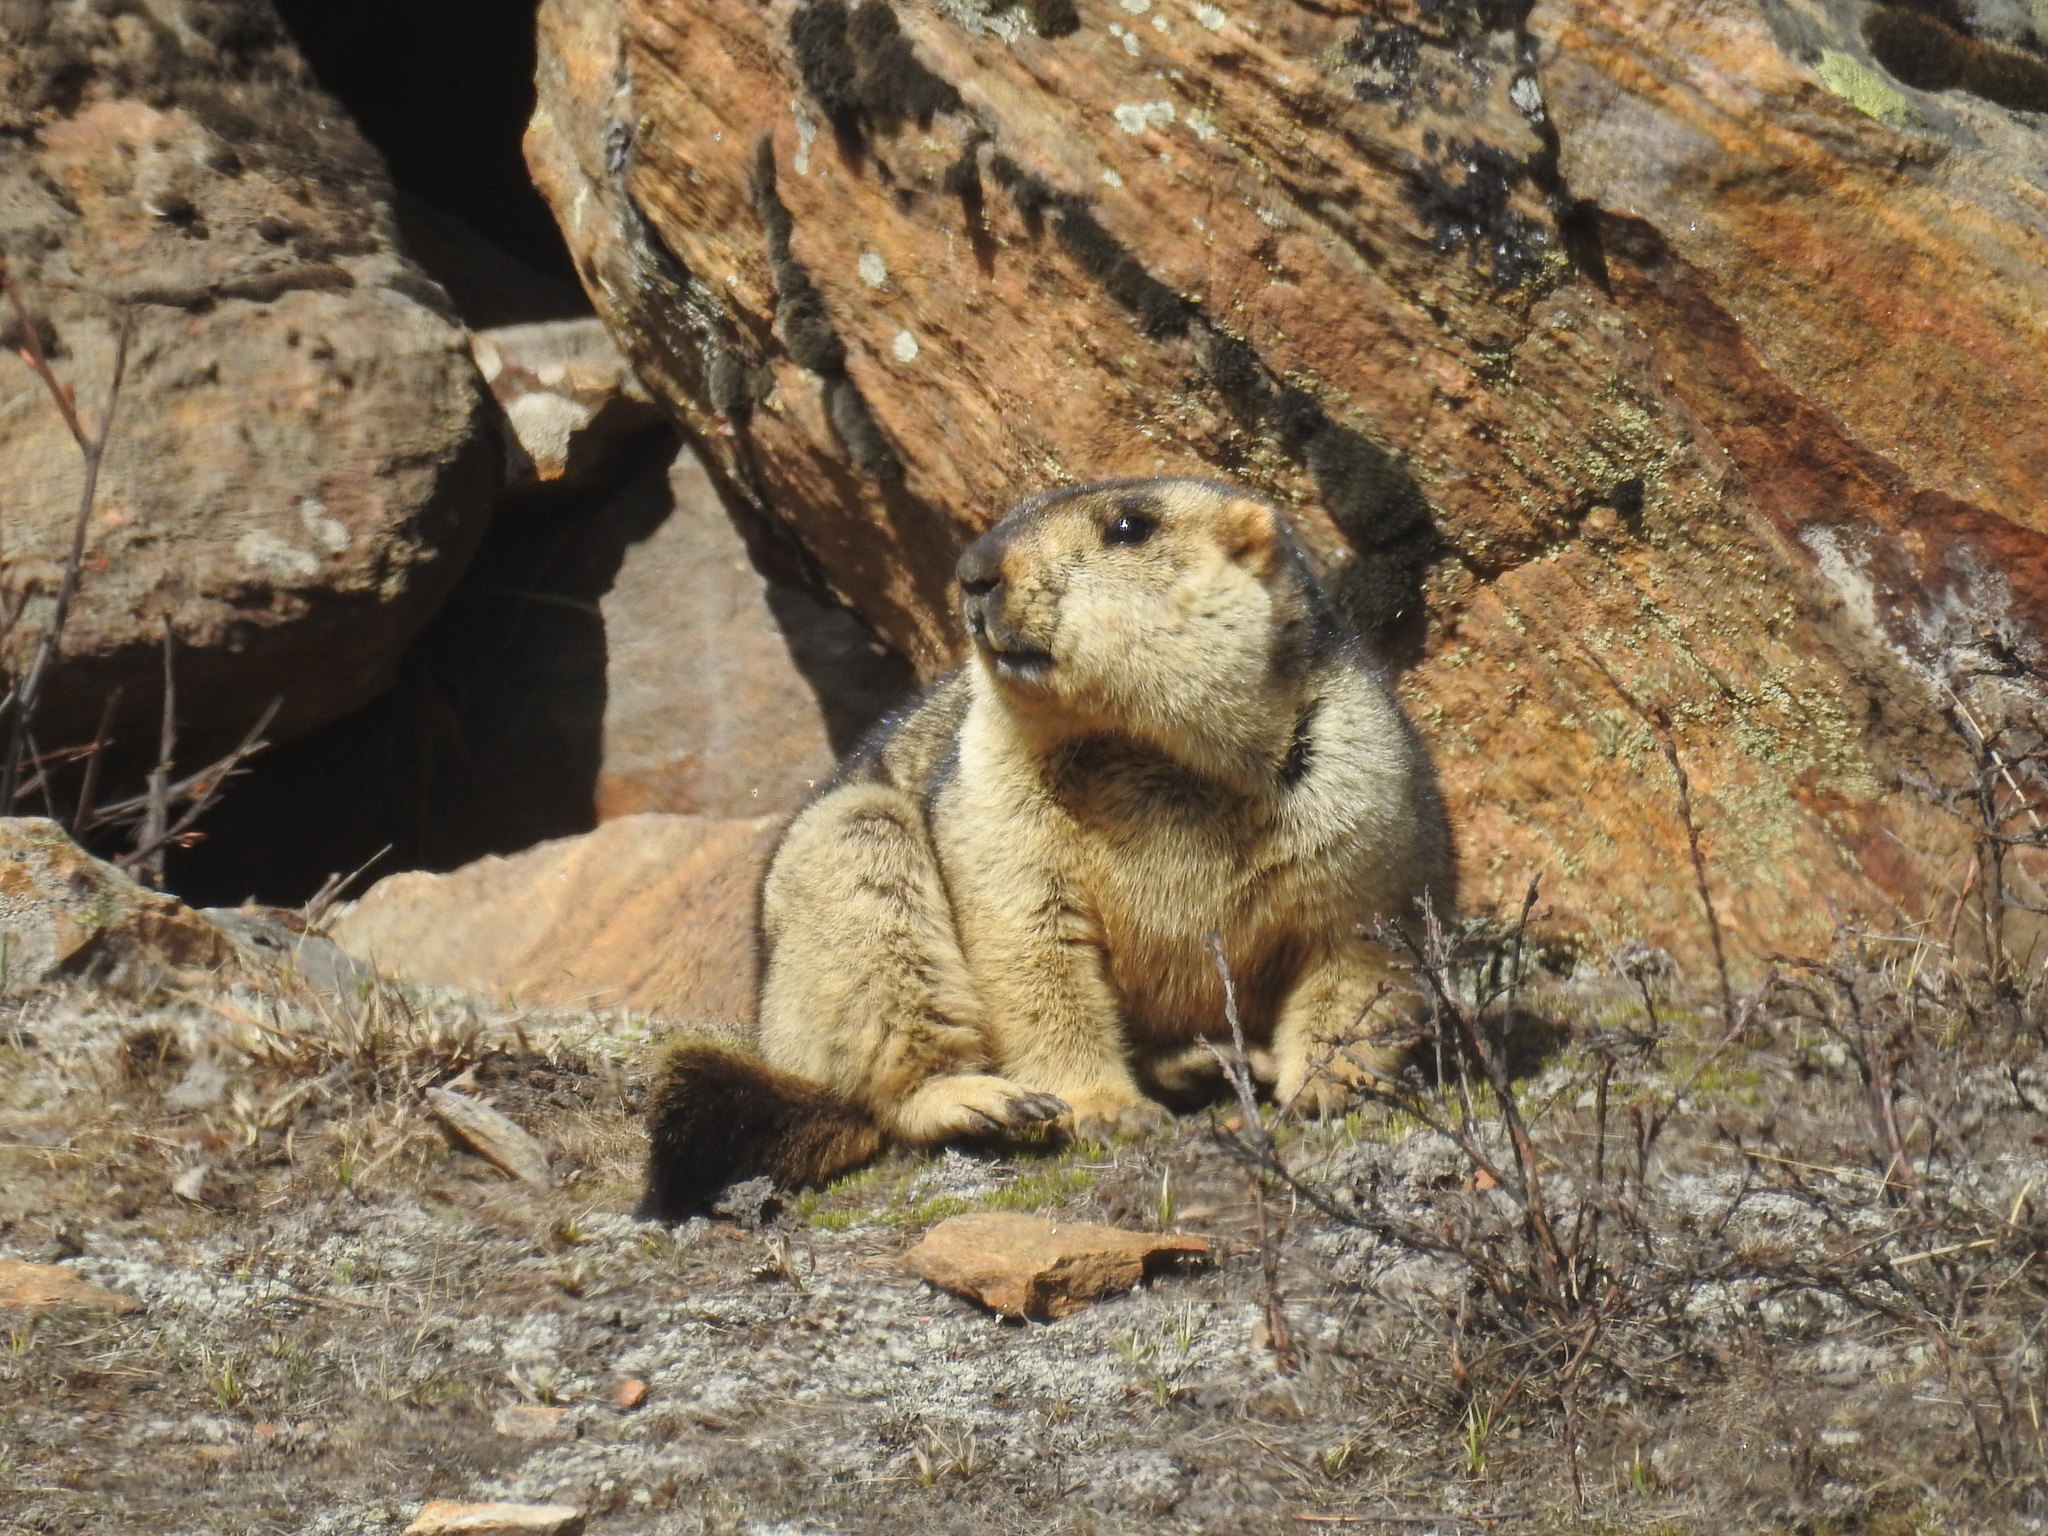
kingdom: Animalia
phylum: Chordata
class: Mammalia
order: Rodentia
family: Sciuridae
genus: Marmota
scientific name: Marmota himalayana
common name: Himalayan marmot
